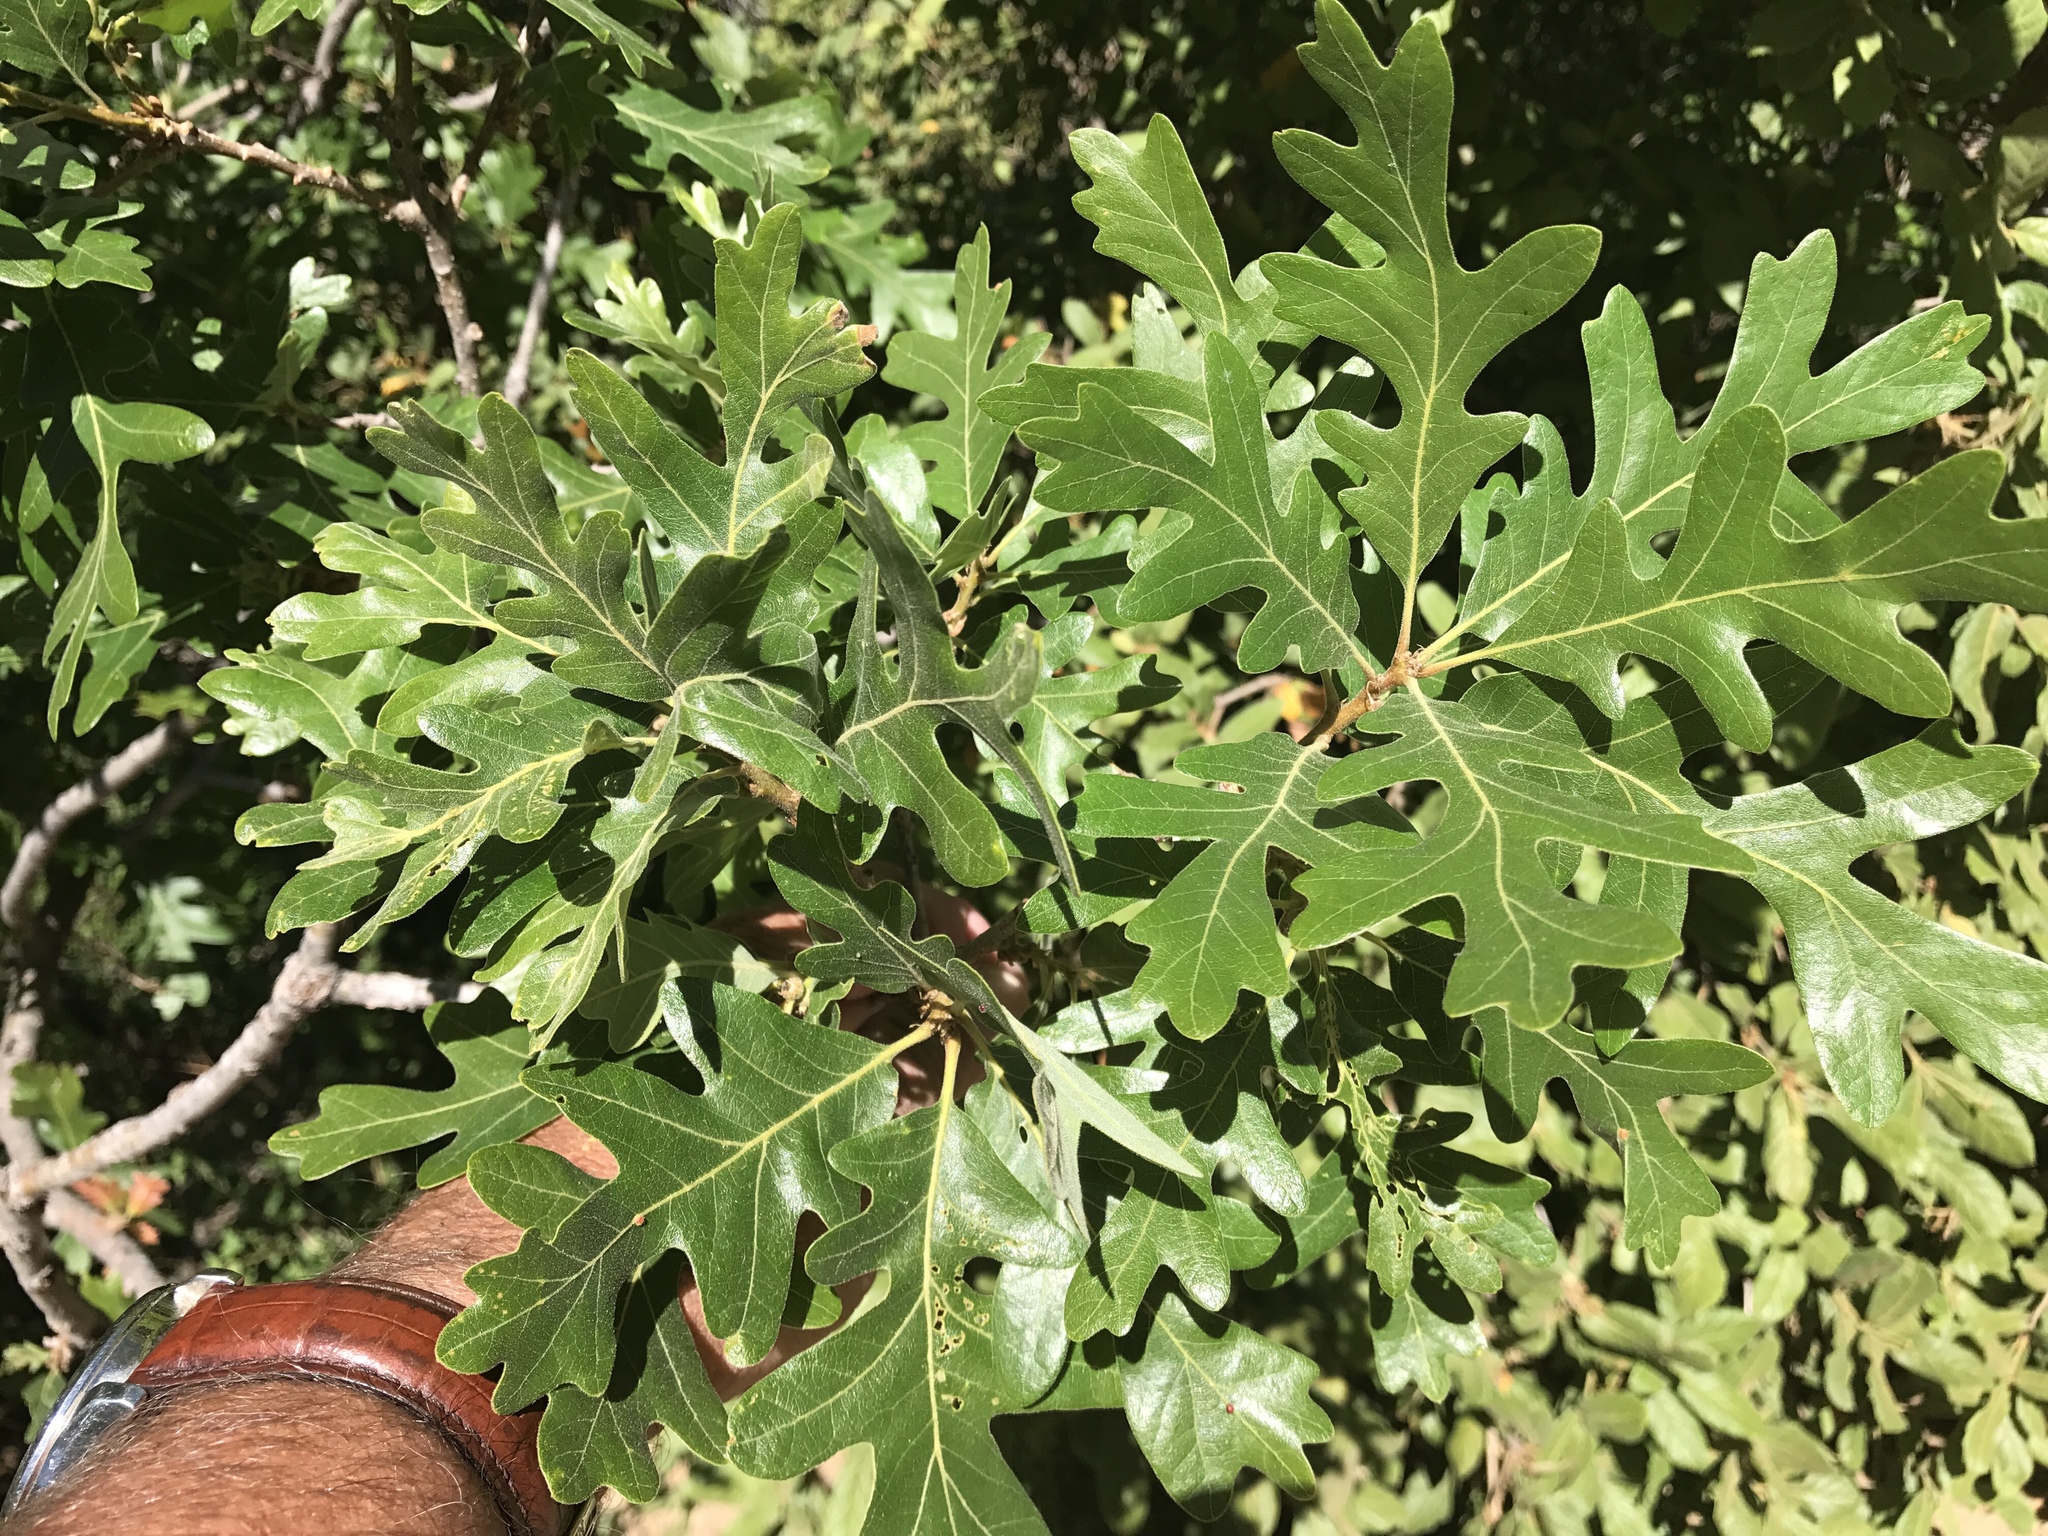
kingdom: Plantae
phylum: Tracheophyta
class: Magnoliopsida
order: Fagales
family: Fagaceae
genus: Quercus
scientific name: Quercus gambelii
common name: Gambel oak
